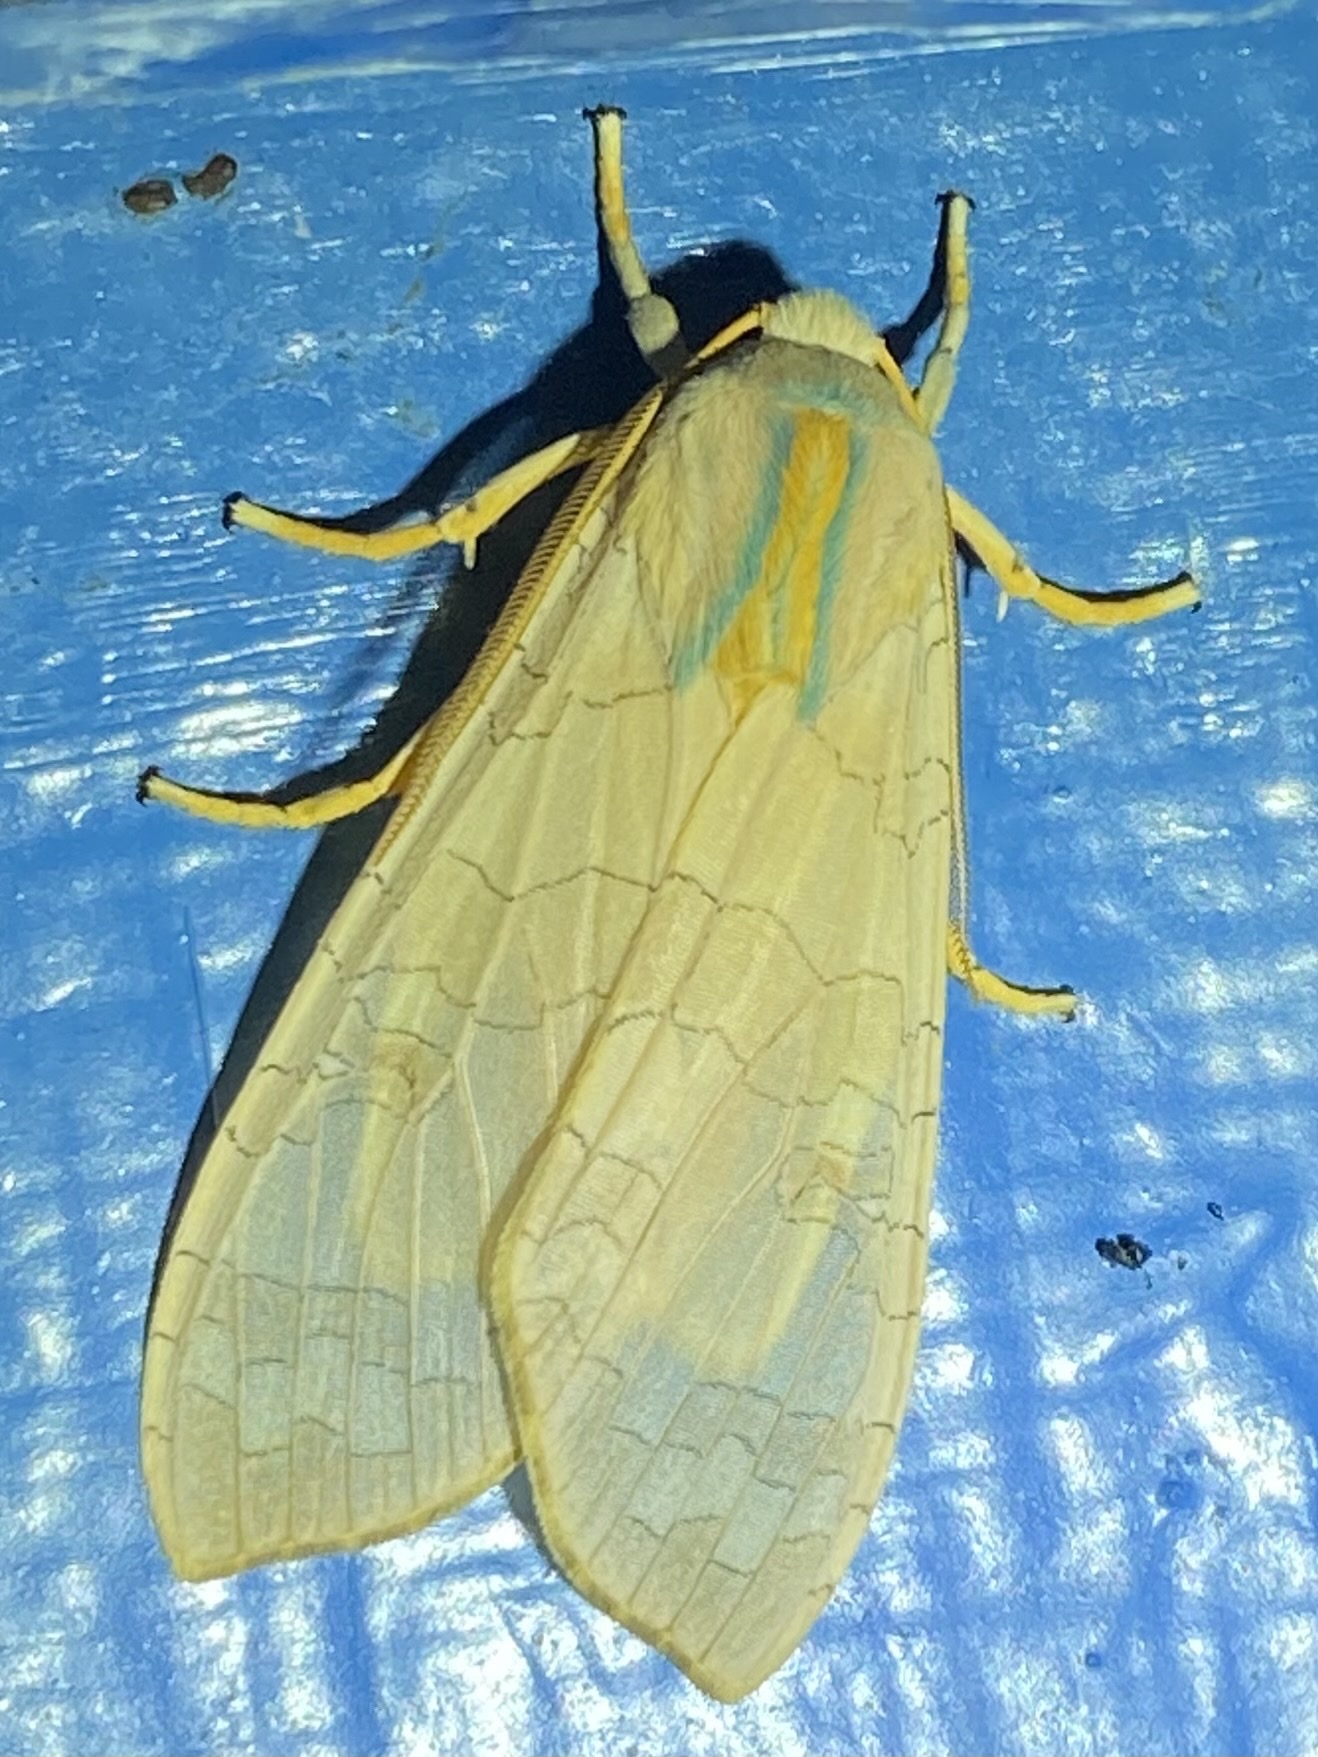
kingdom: Animalia
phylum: Arthropoda
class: Insecta
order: Lepidoptera
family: Erebidae
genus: Halysidota
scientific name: Halysidota tessellaris
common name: Banded tussock moth
